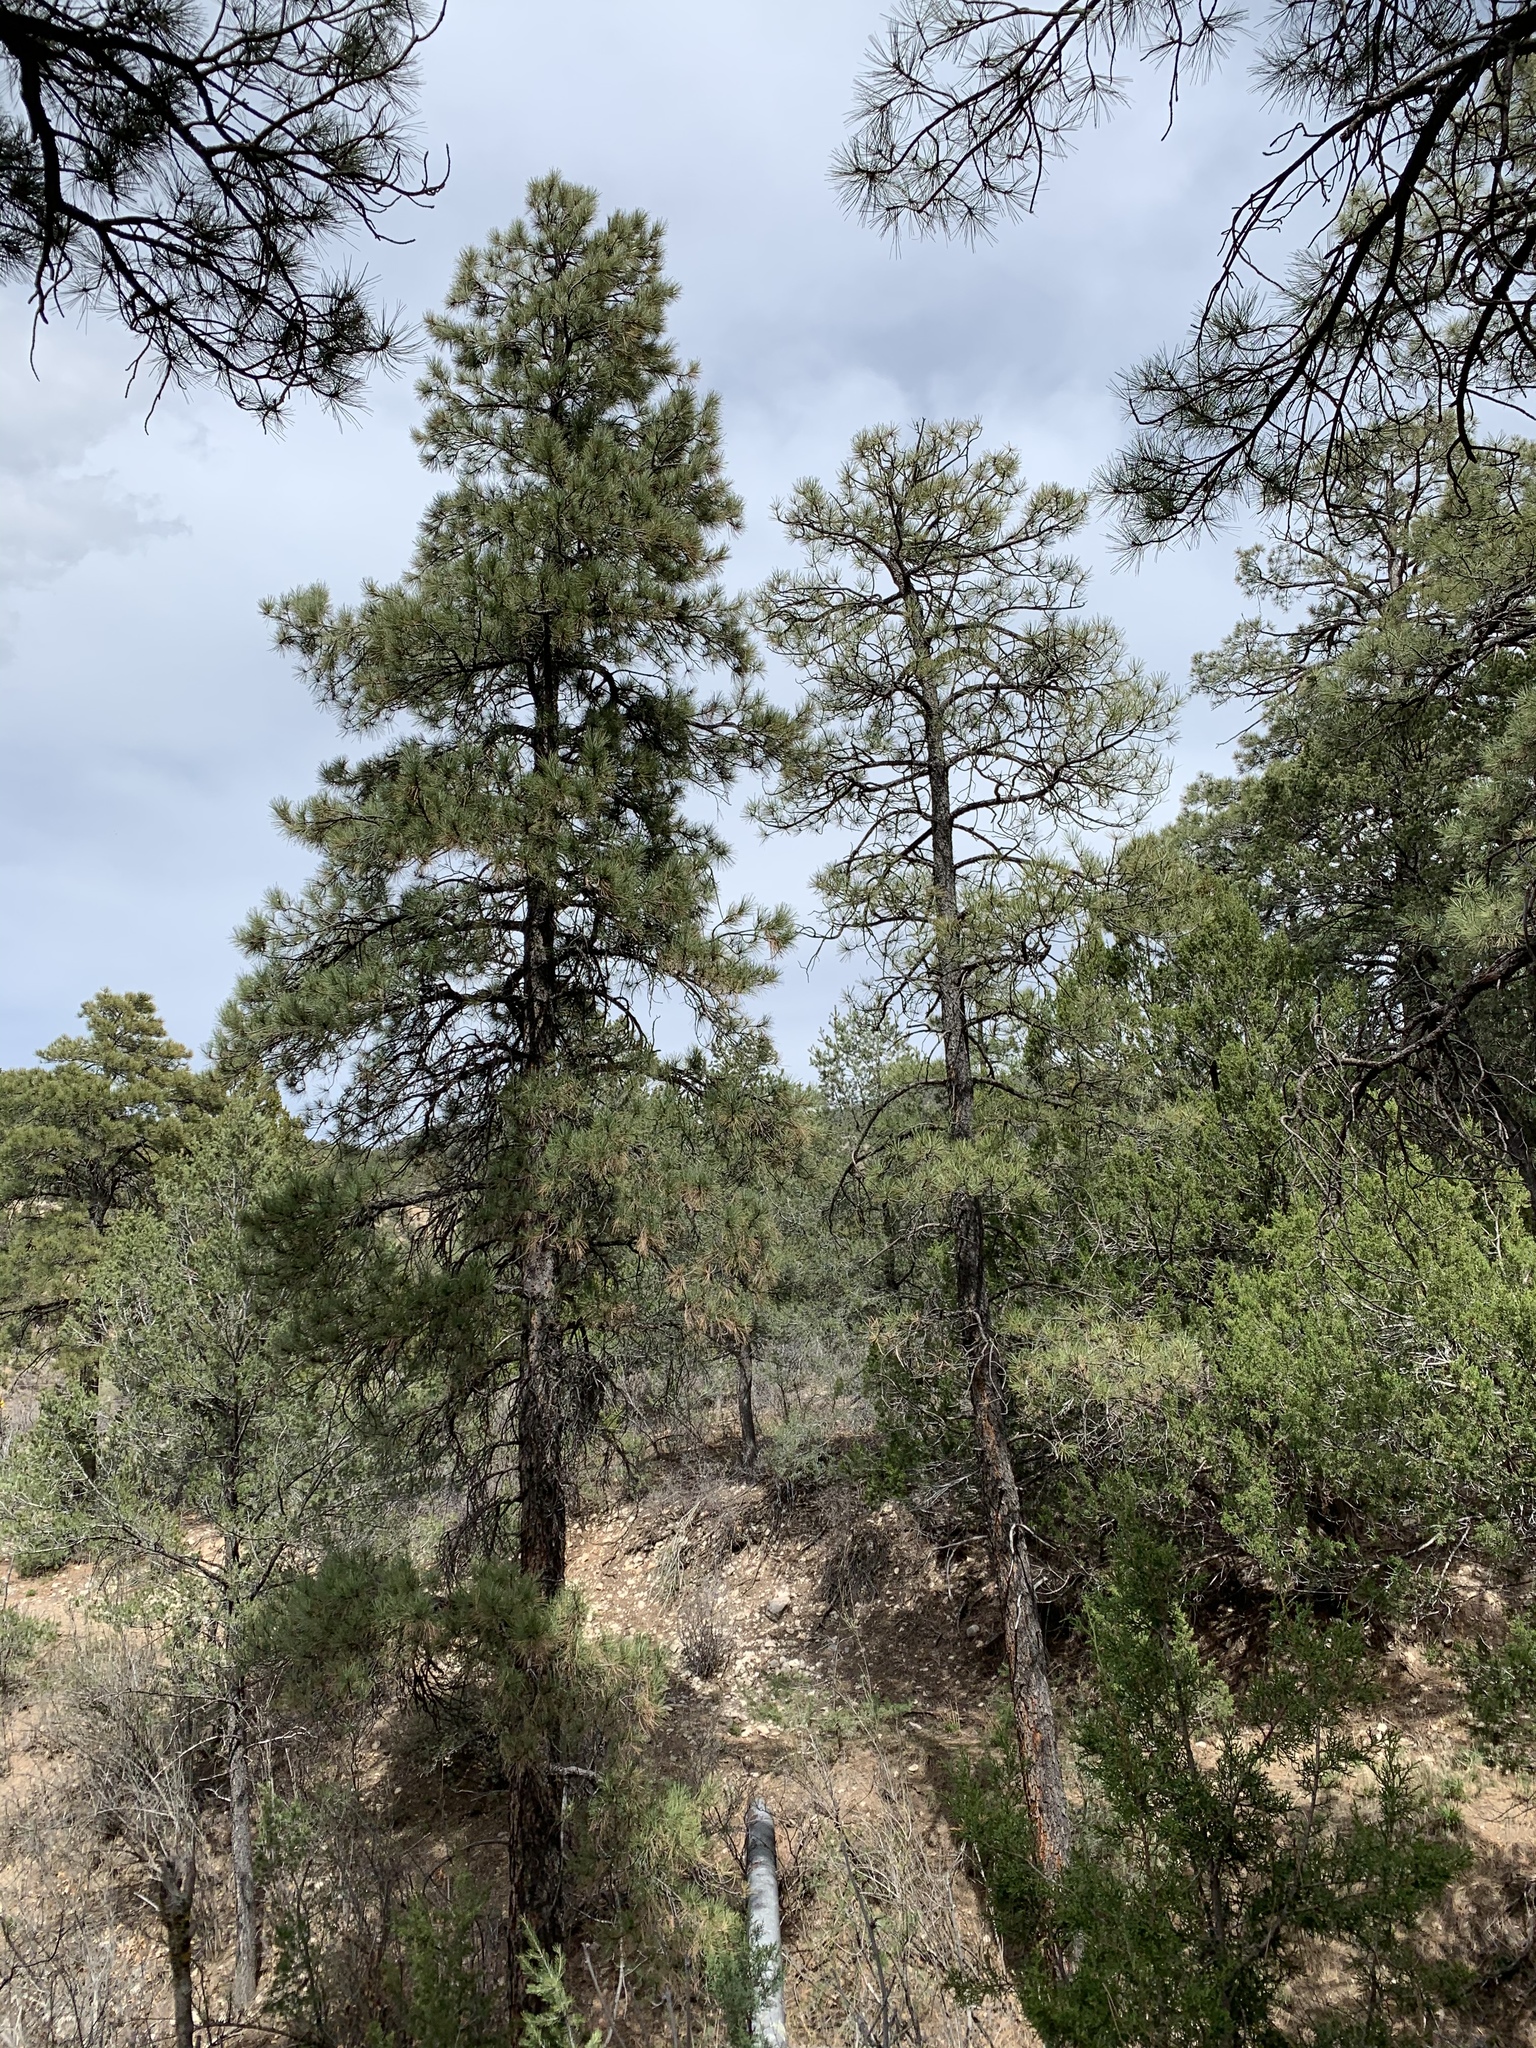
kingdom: Plantae
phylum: Tracheophyta
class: Pinopsida
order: Pinales
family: Pinaceae
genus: Pinus
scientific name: Pinus ponderosa
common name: Western yellow-pine
